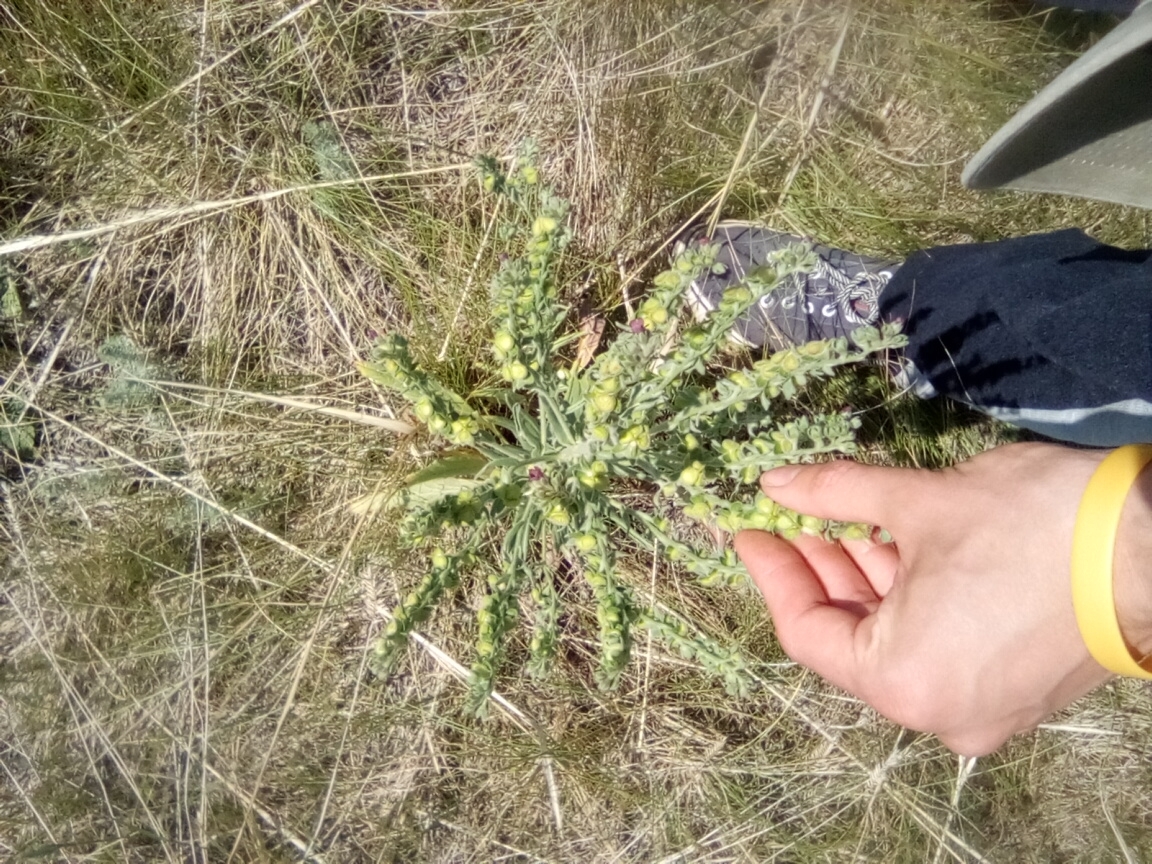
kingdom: Plantae
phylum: Tracheophyta
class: Magnoliopsida
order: Boraginales
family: Boraginaceae
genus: Cynoglossum
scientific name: Cynoglossum officinale
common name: Hound's-tongue
